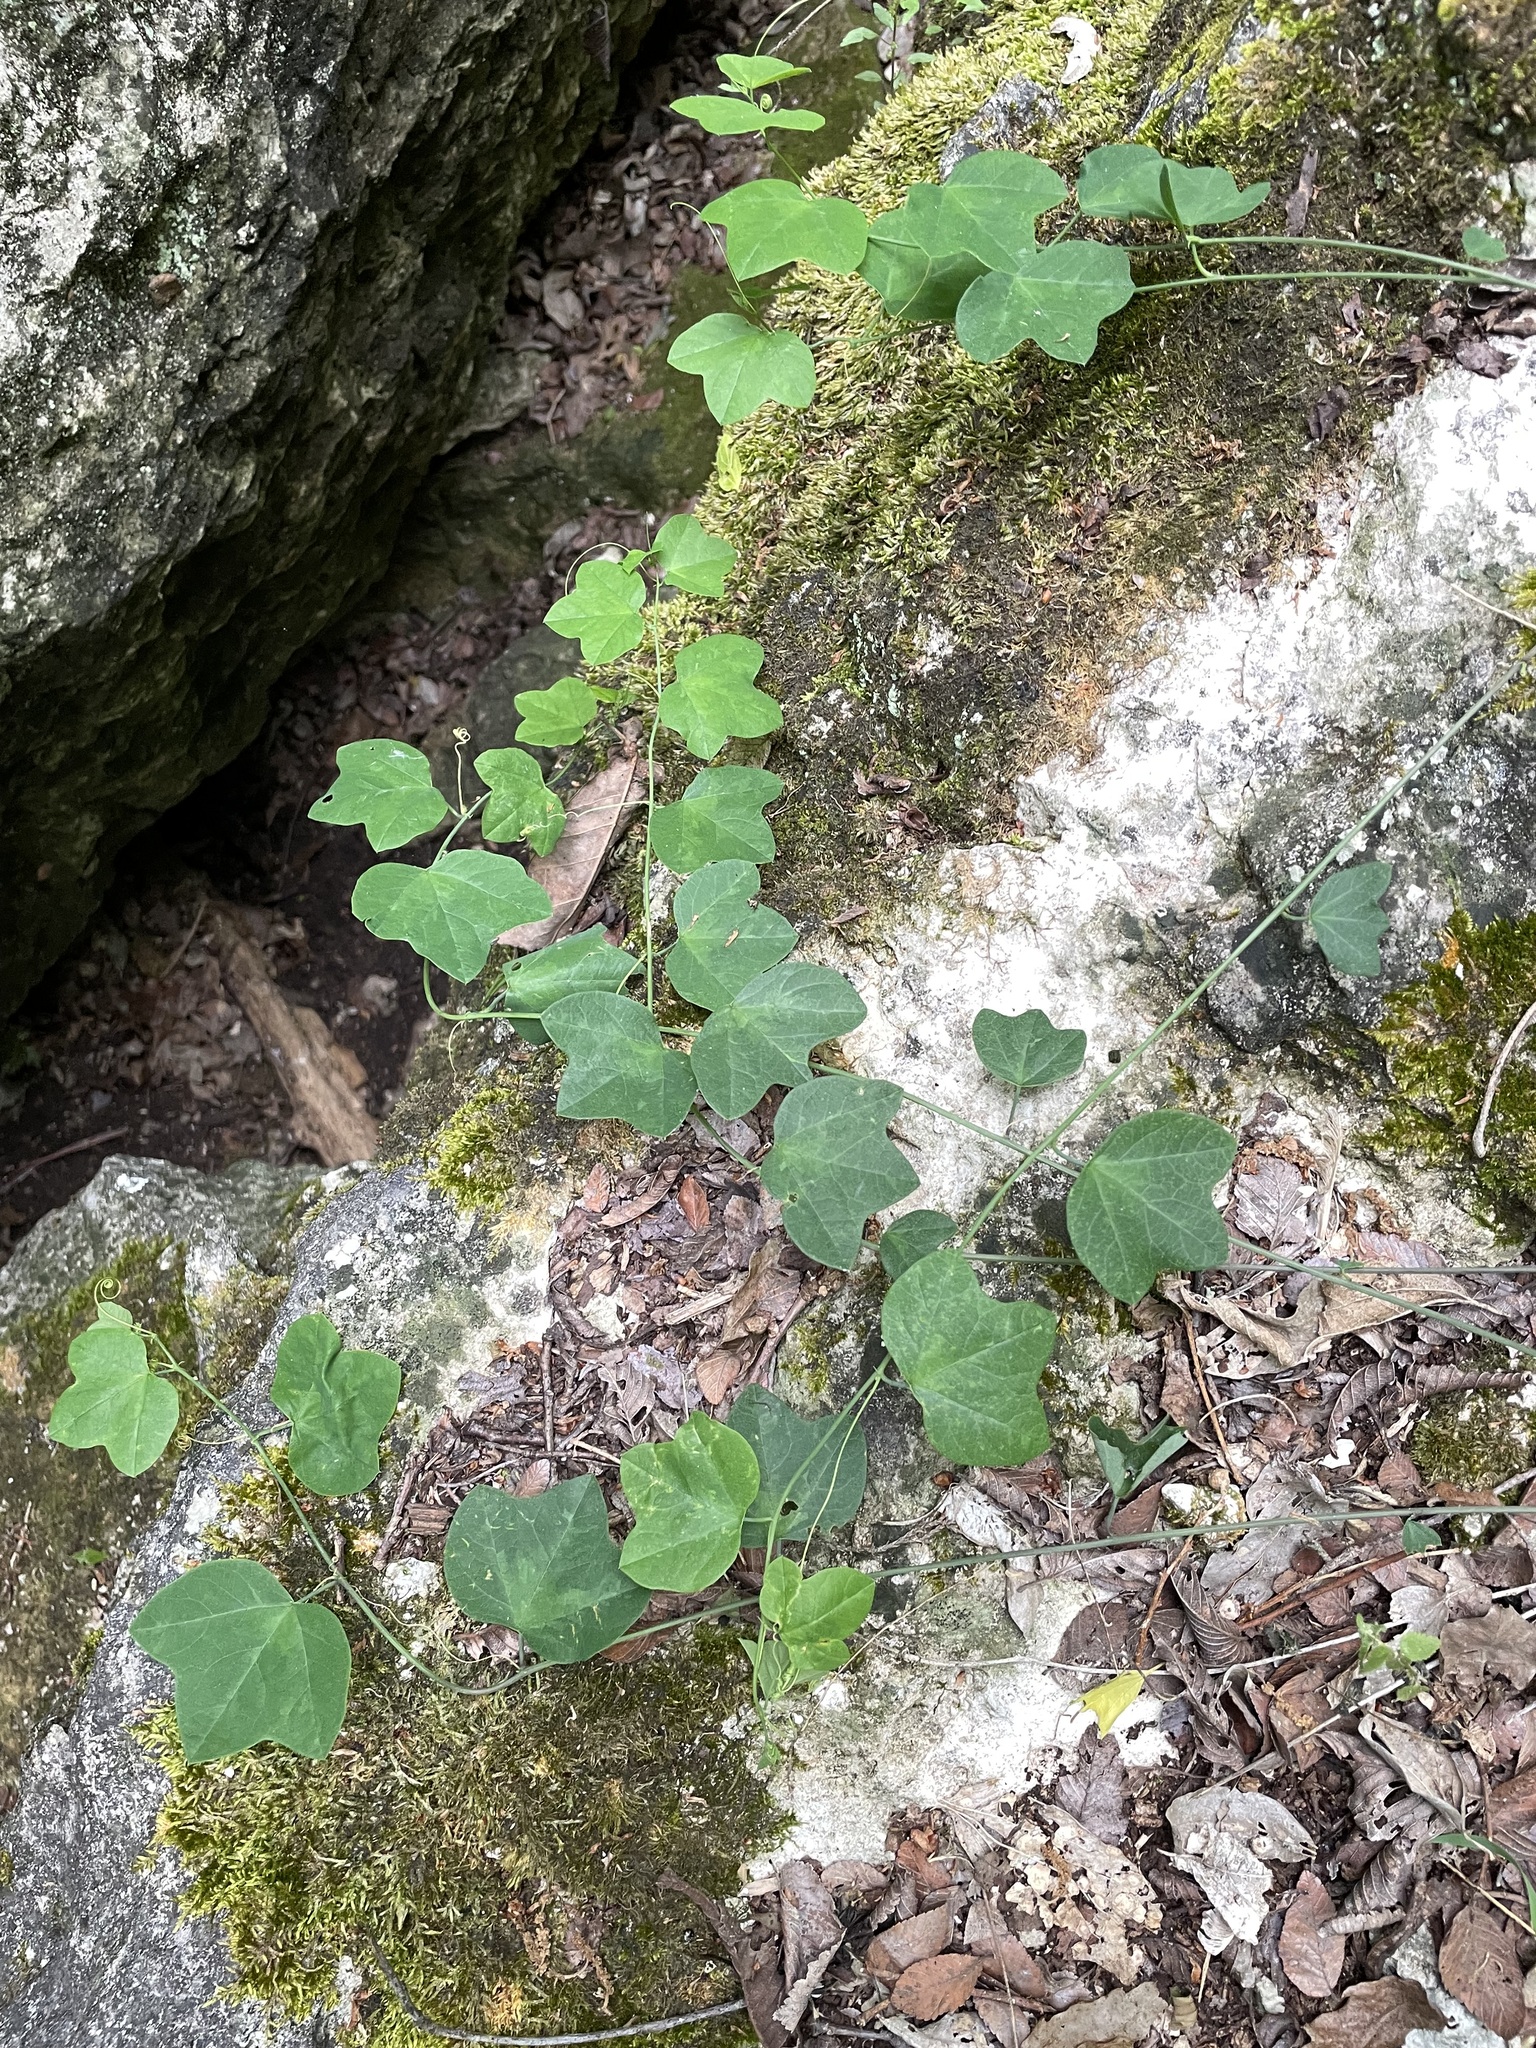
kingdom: Plantae
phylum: Tracheophyta
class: Magnoliopsida
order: Malpighiales
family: Passifloraceae
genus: Passiflora
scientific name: Passiflora lutea
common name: Yellow passionflower
